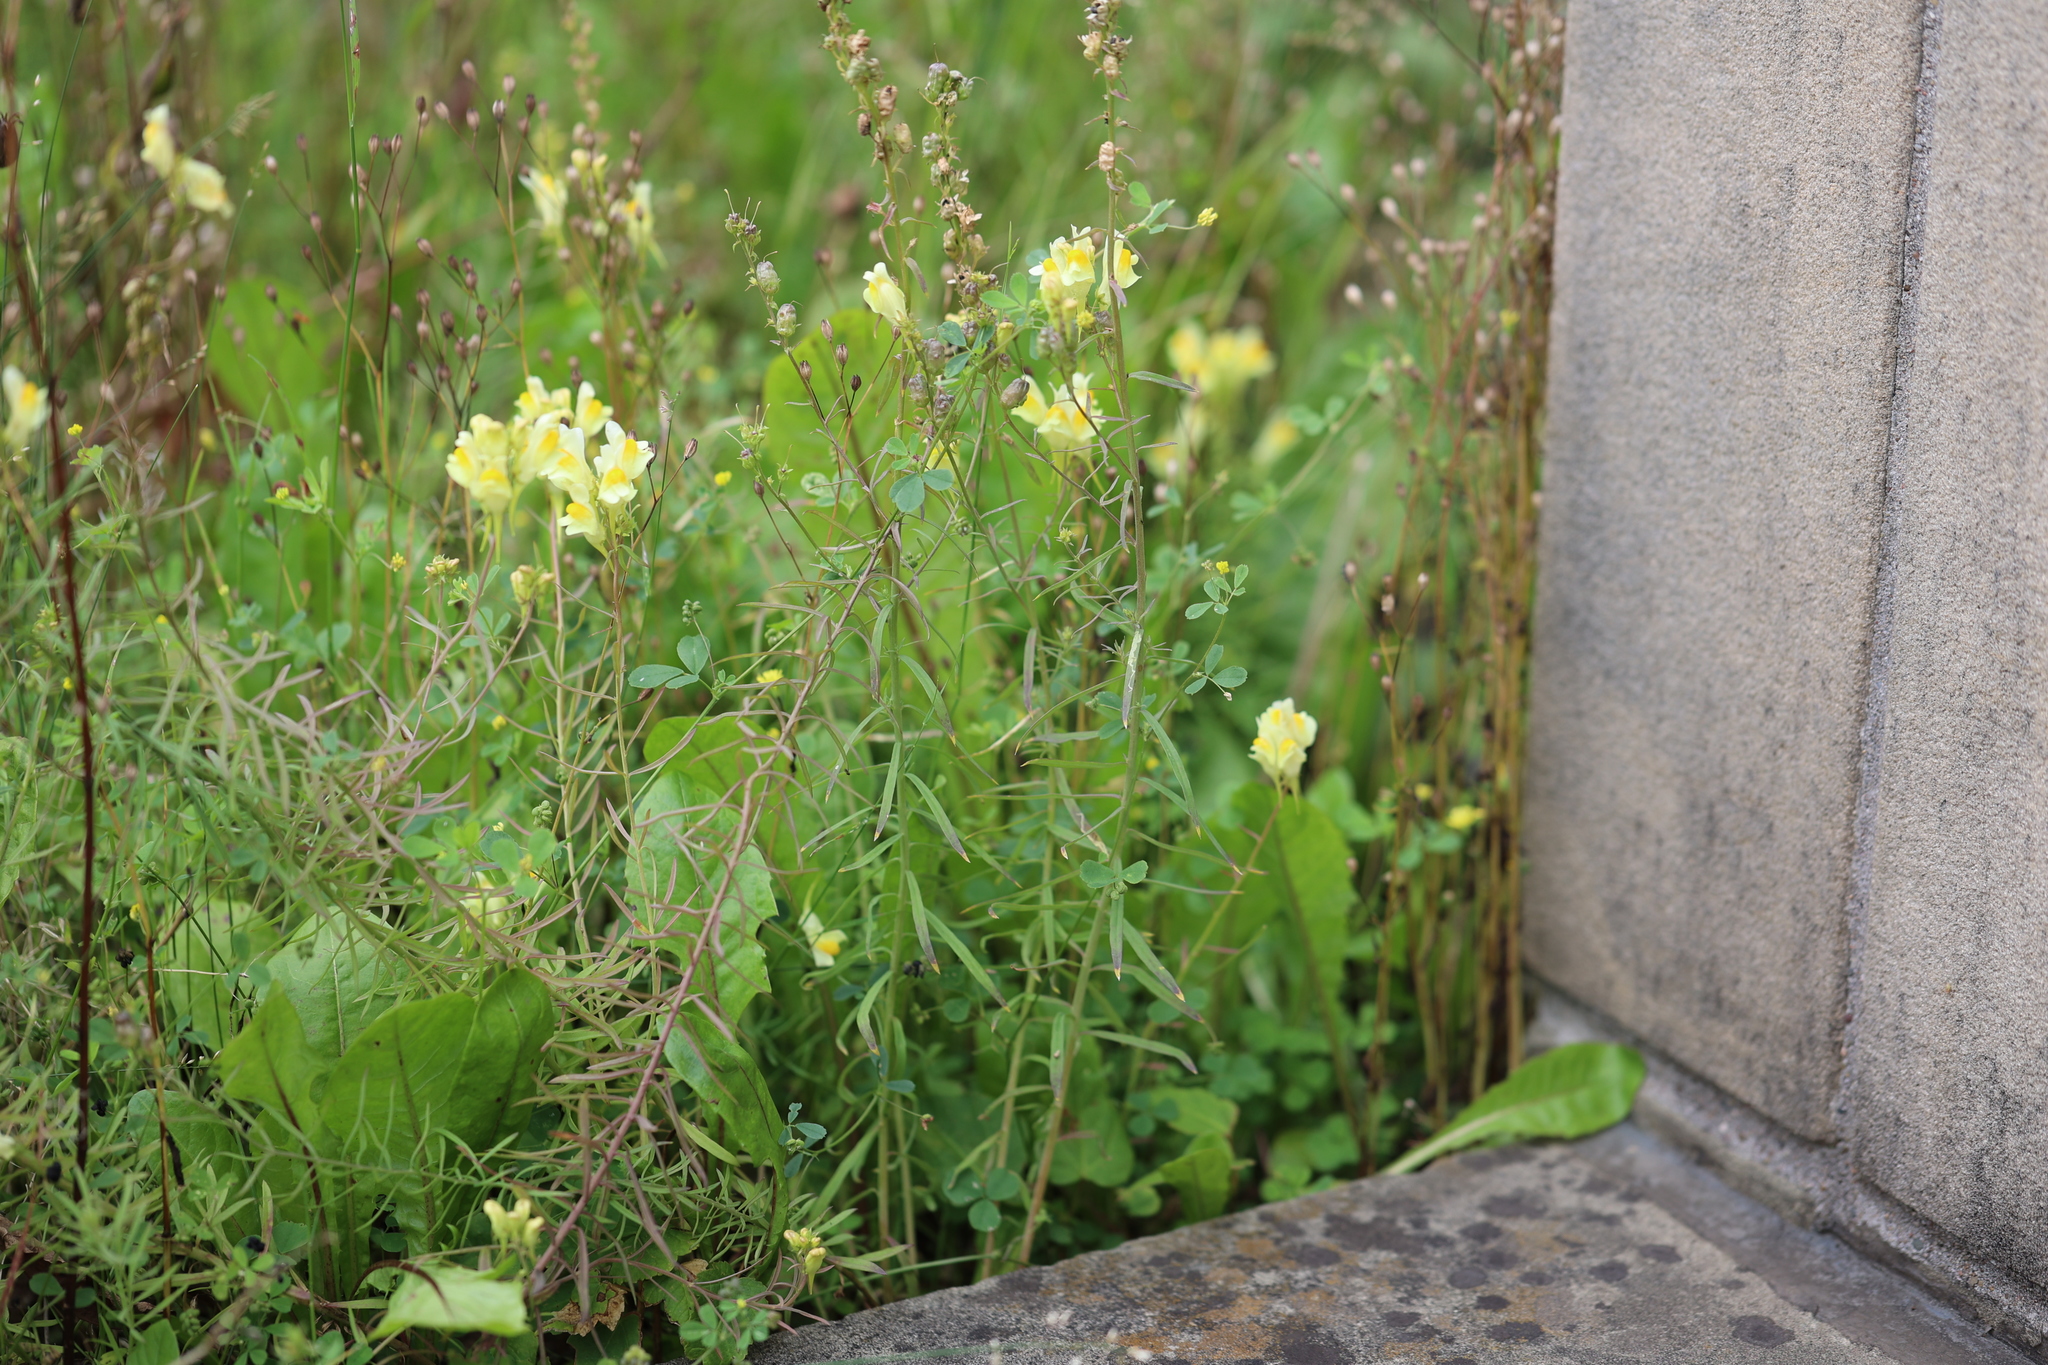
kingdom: Plantae
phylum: Tracheophyta
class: Magnoliopsida
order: Lamiales
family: Plantaginaceae
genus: Linaria
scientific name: Linaria vulgaris
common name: Butter and eggs
